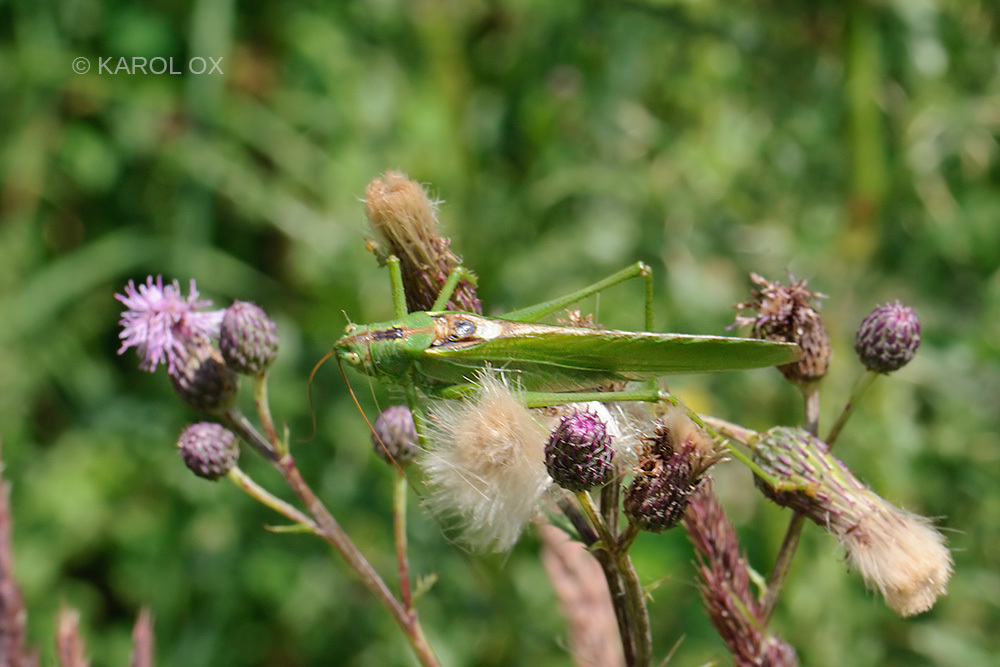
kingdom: Animalia
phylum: Arthropoda
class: Insecta
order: Orthoptera
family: Tettigoniidae
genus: Tettigonia
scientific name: Tettigonia viridissima
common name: Great green bush-cricket
